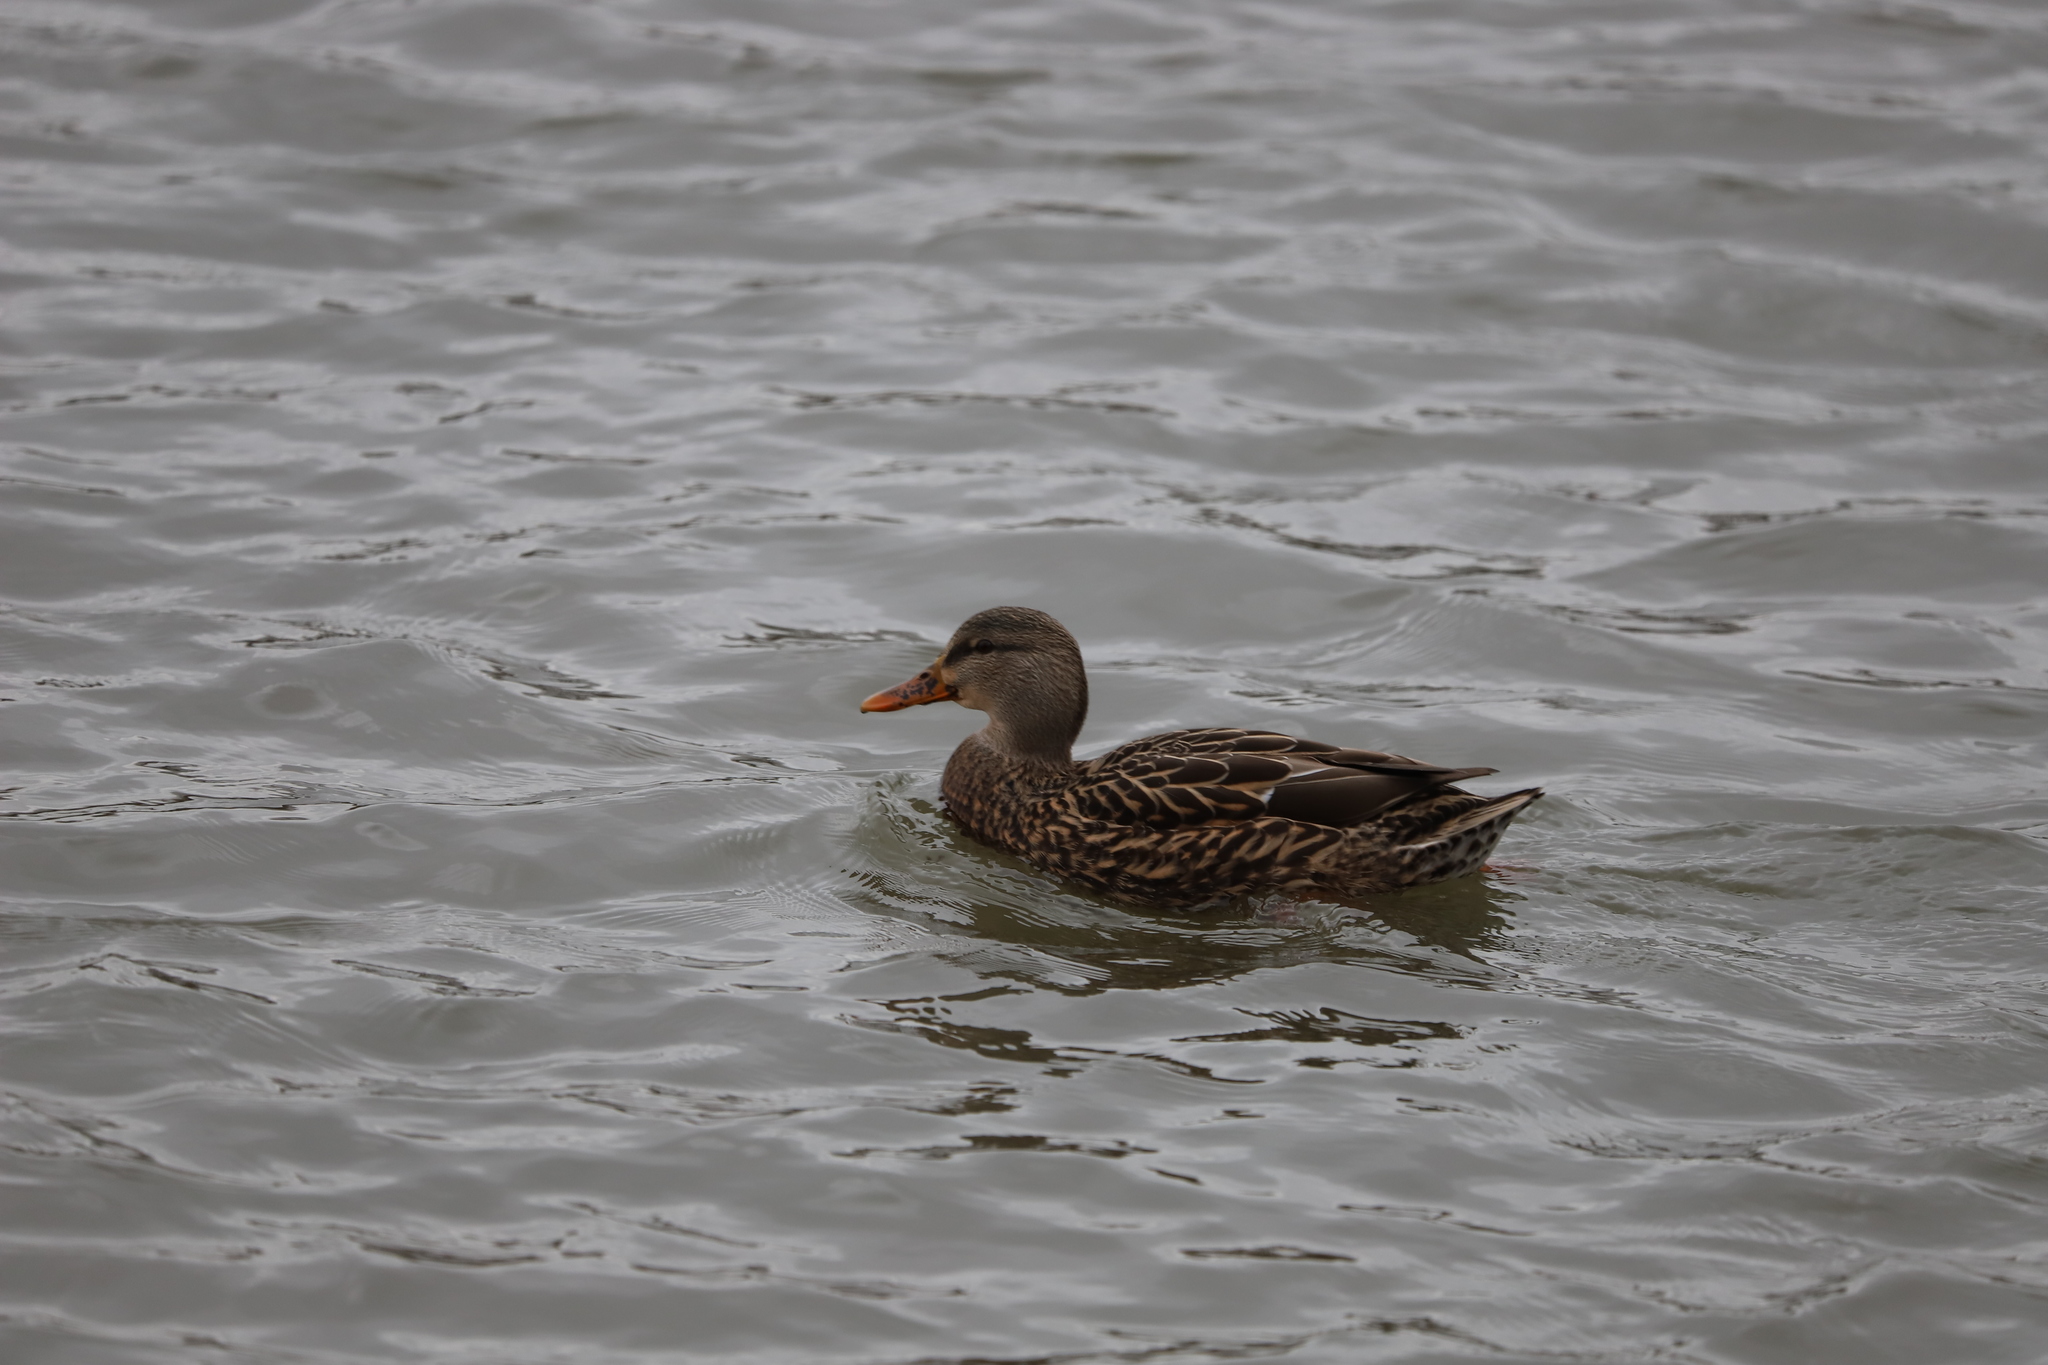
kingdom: Animalia
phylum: Chordata
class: Aves
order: Anseriformes
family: Anatidae
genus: Anas
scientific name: Anas platyrhynchos
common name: Mallard
